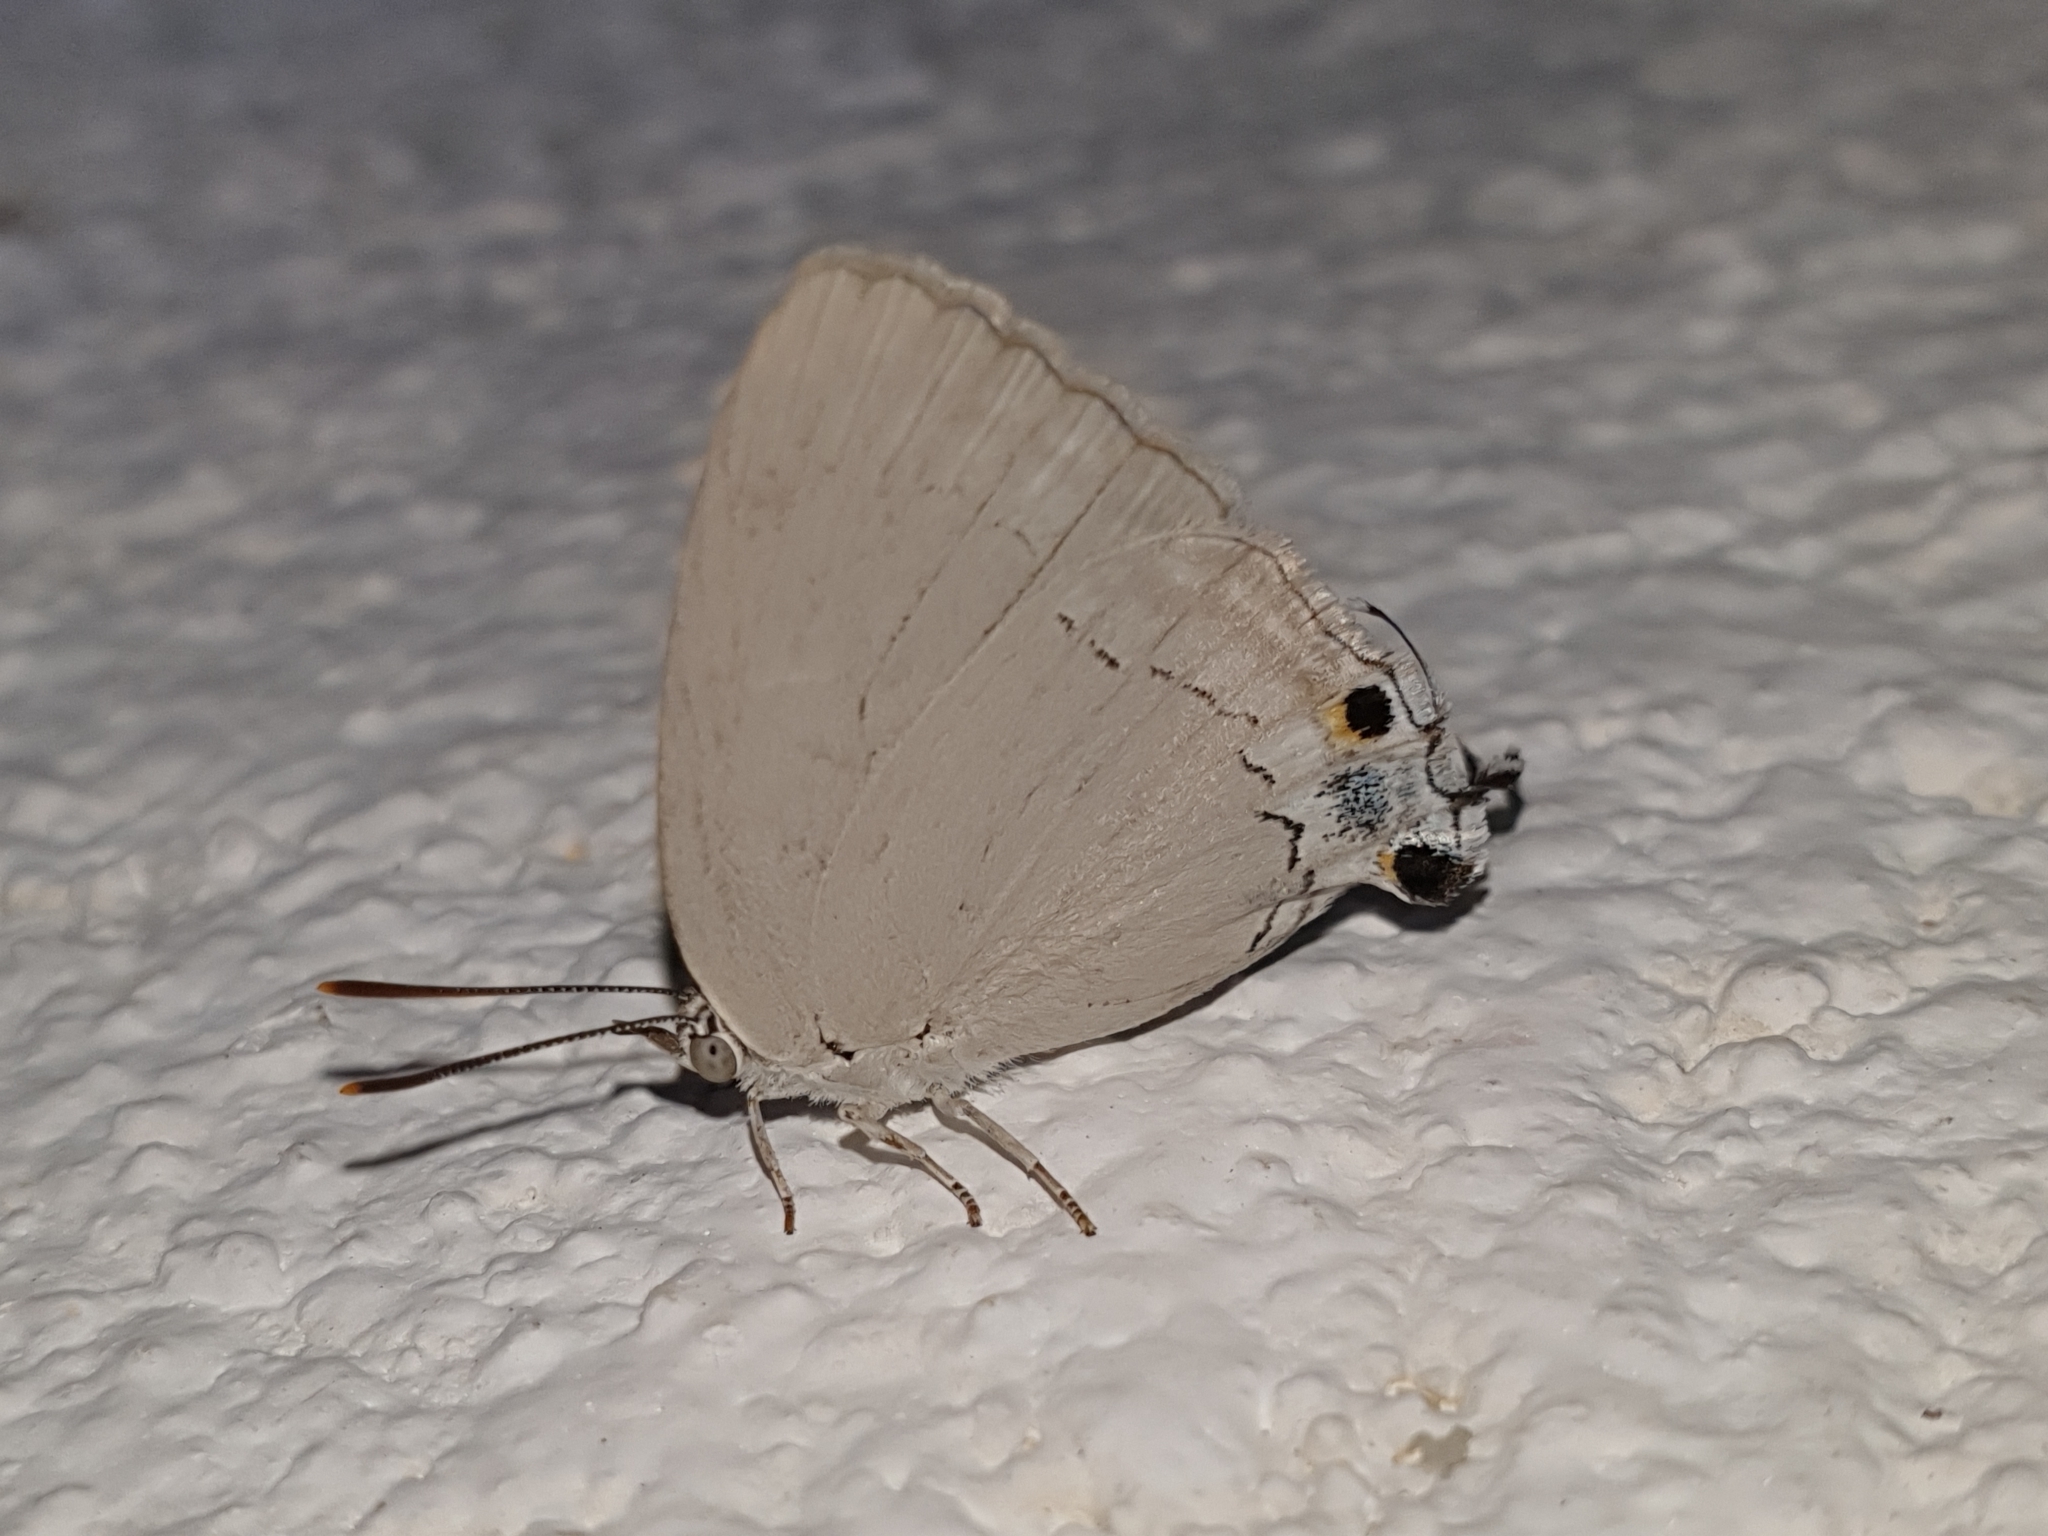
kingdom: Animalia
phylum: Arthropoda
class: Insecta
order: Lepidoptera
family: Lycaenidae
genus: Tajuria
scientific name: Tajuria jehana
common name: Plains blue royal
